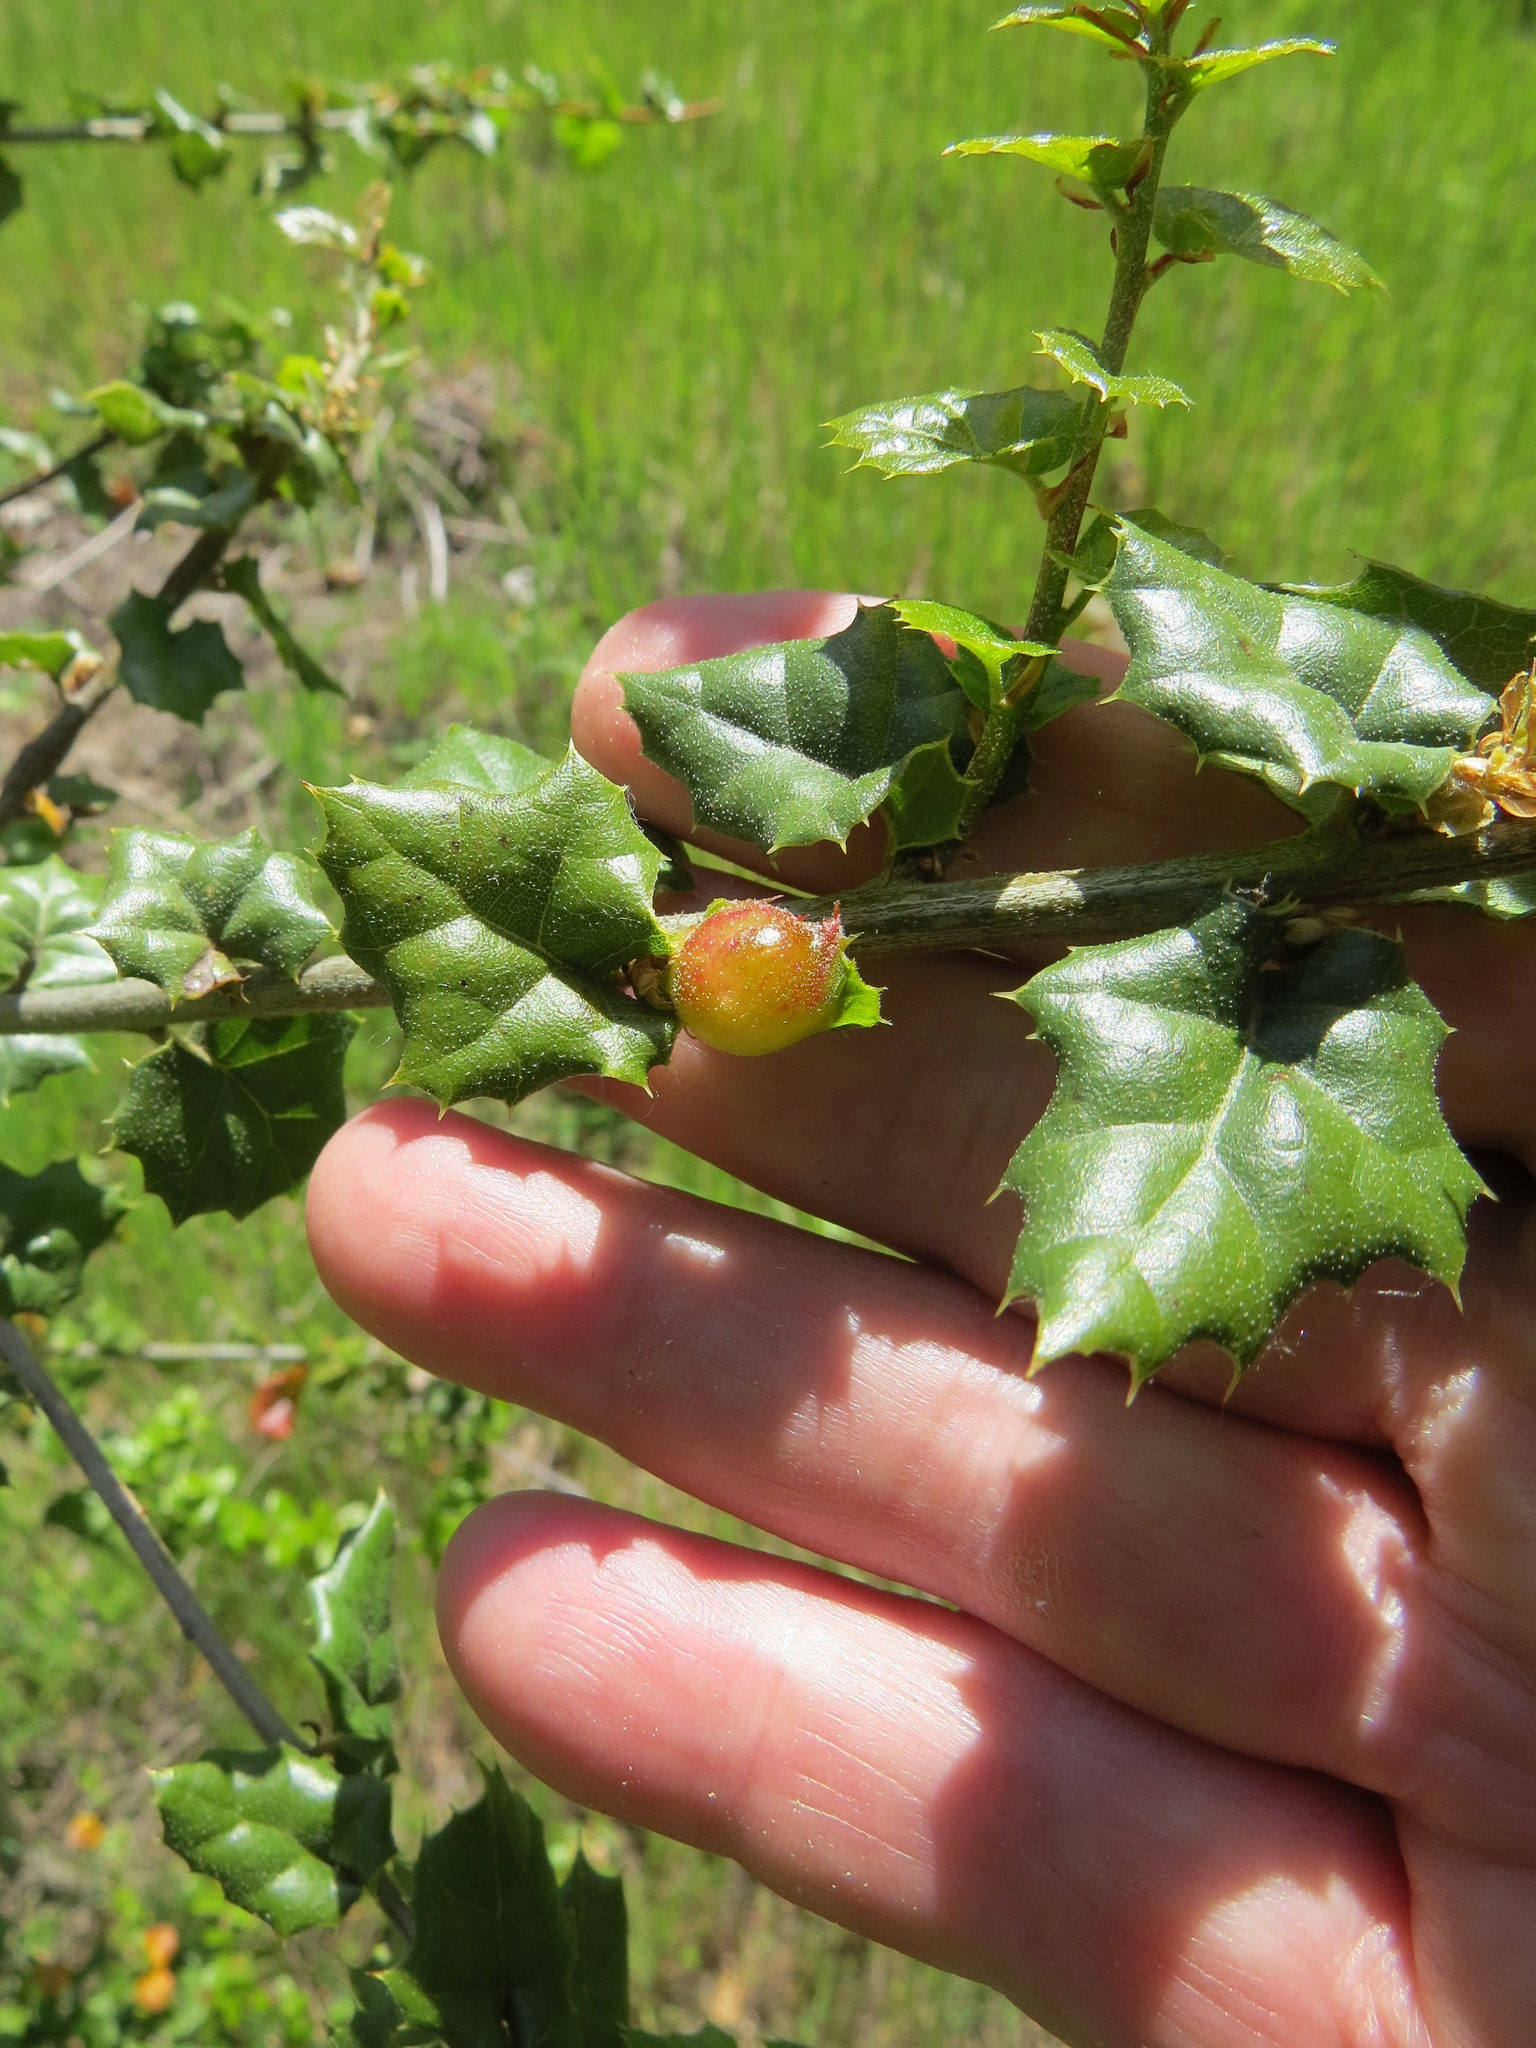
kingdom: Animalia
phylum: Arthropoda
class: Insecta
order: Hymenoptera
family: Cynipidae
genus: Callirhytis
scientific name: Callirhytis
